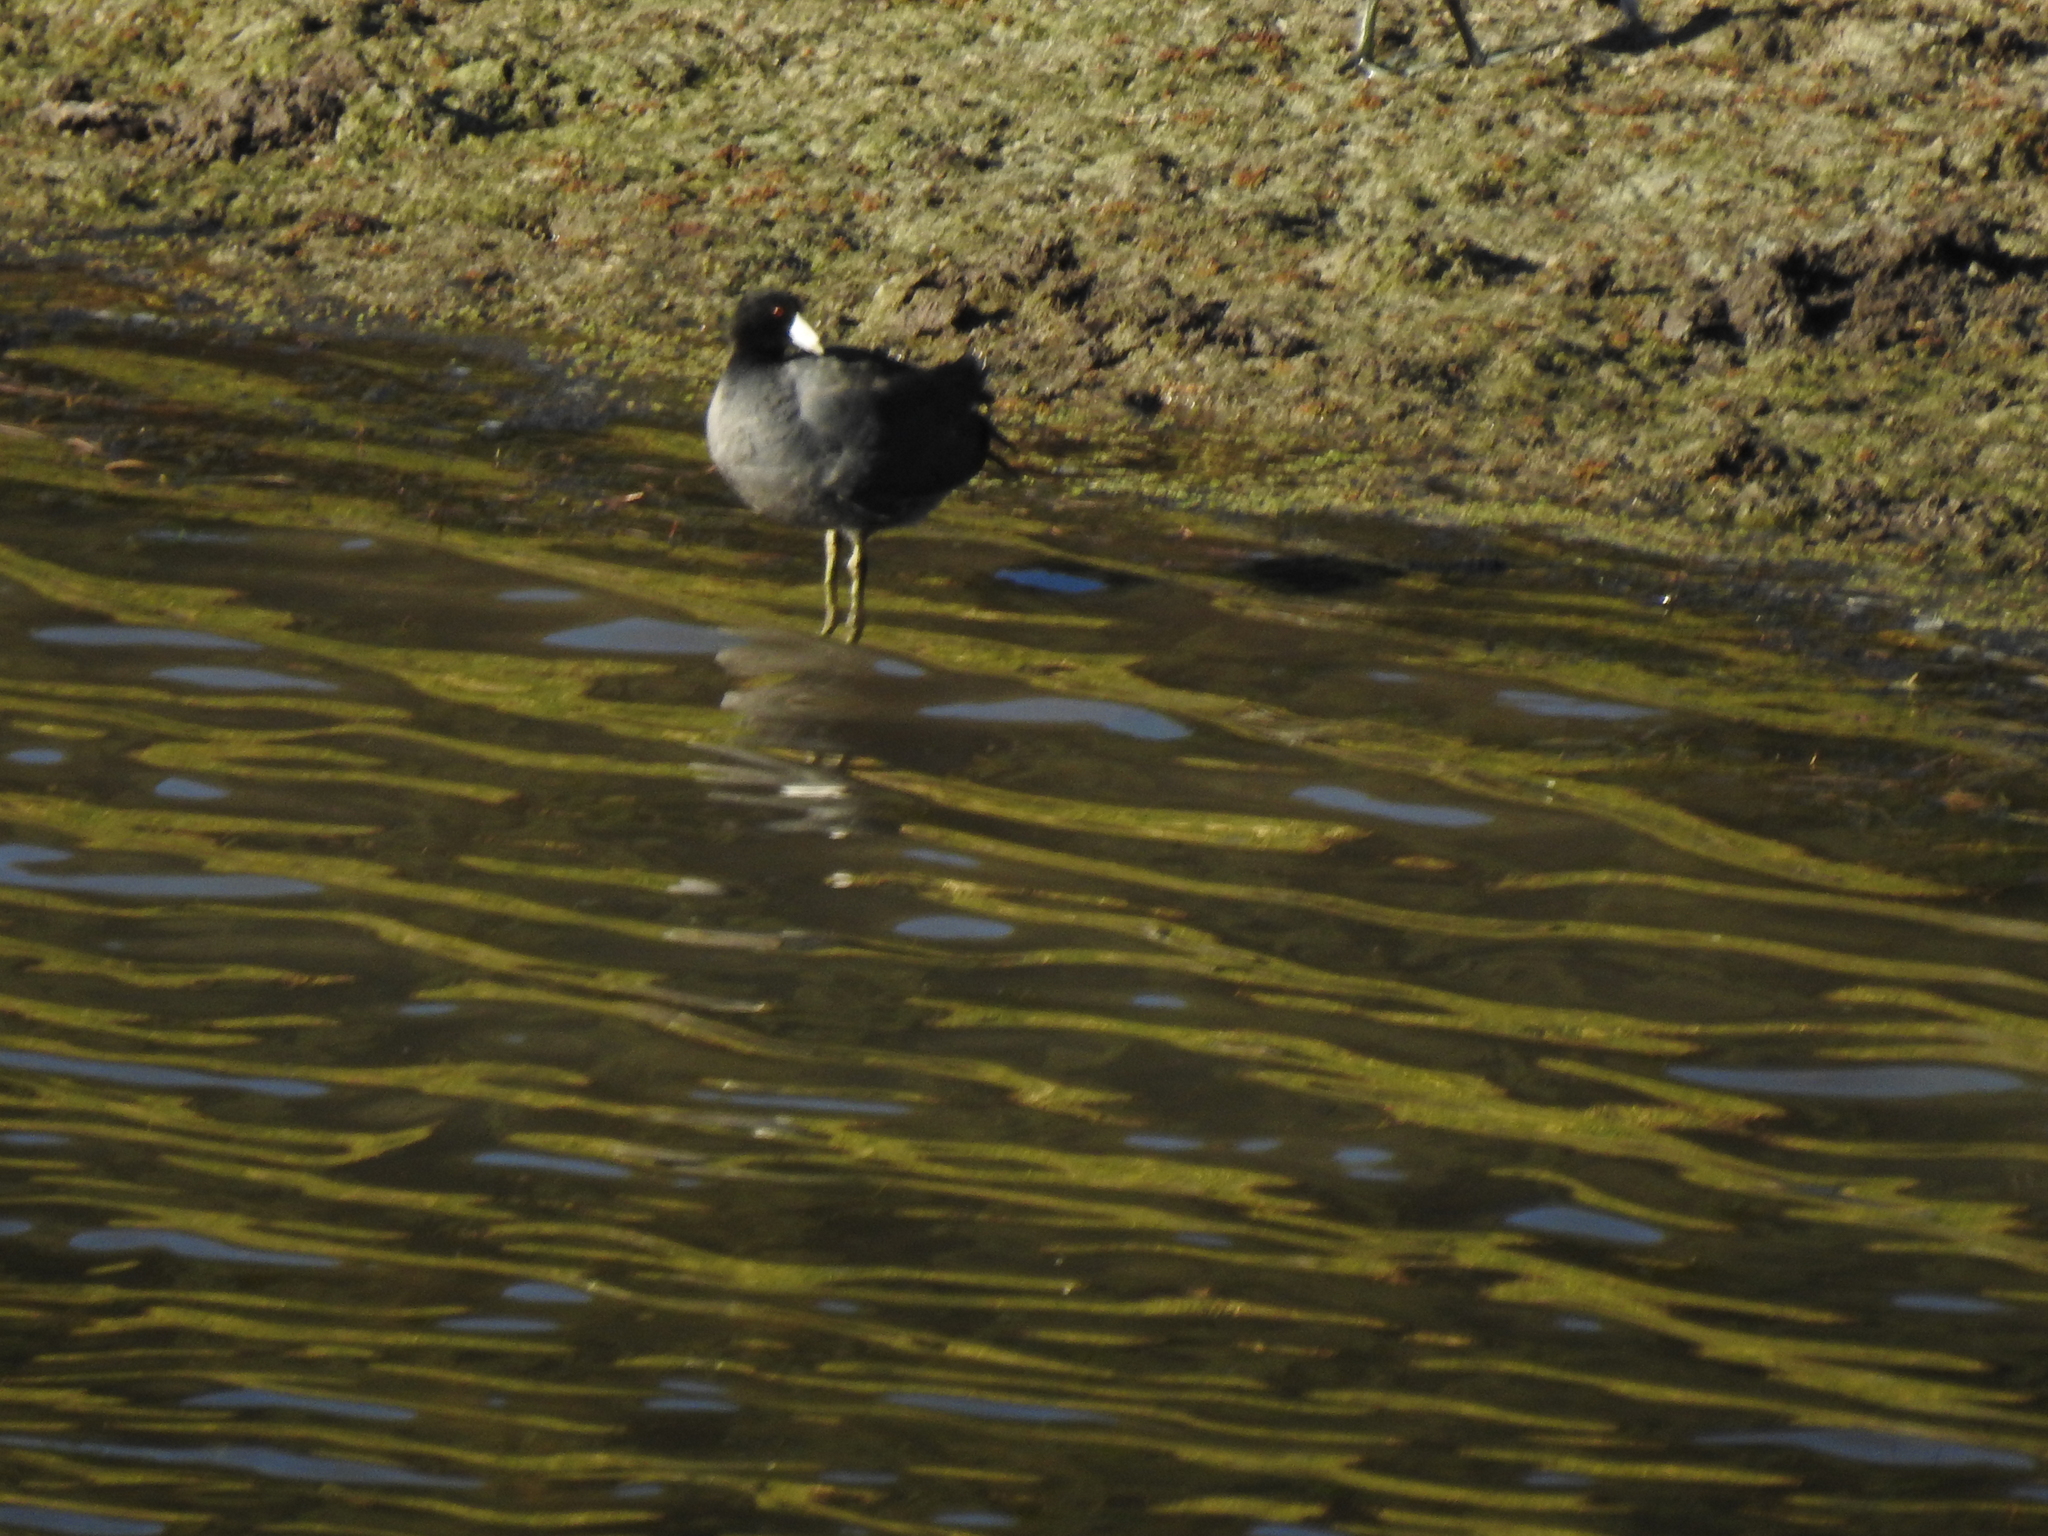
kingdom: Animalia
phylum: Chordata
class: Aves
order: Gruiformes
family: Rallidae
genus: Fulica
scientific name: Fulica americana
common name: American coot
